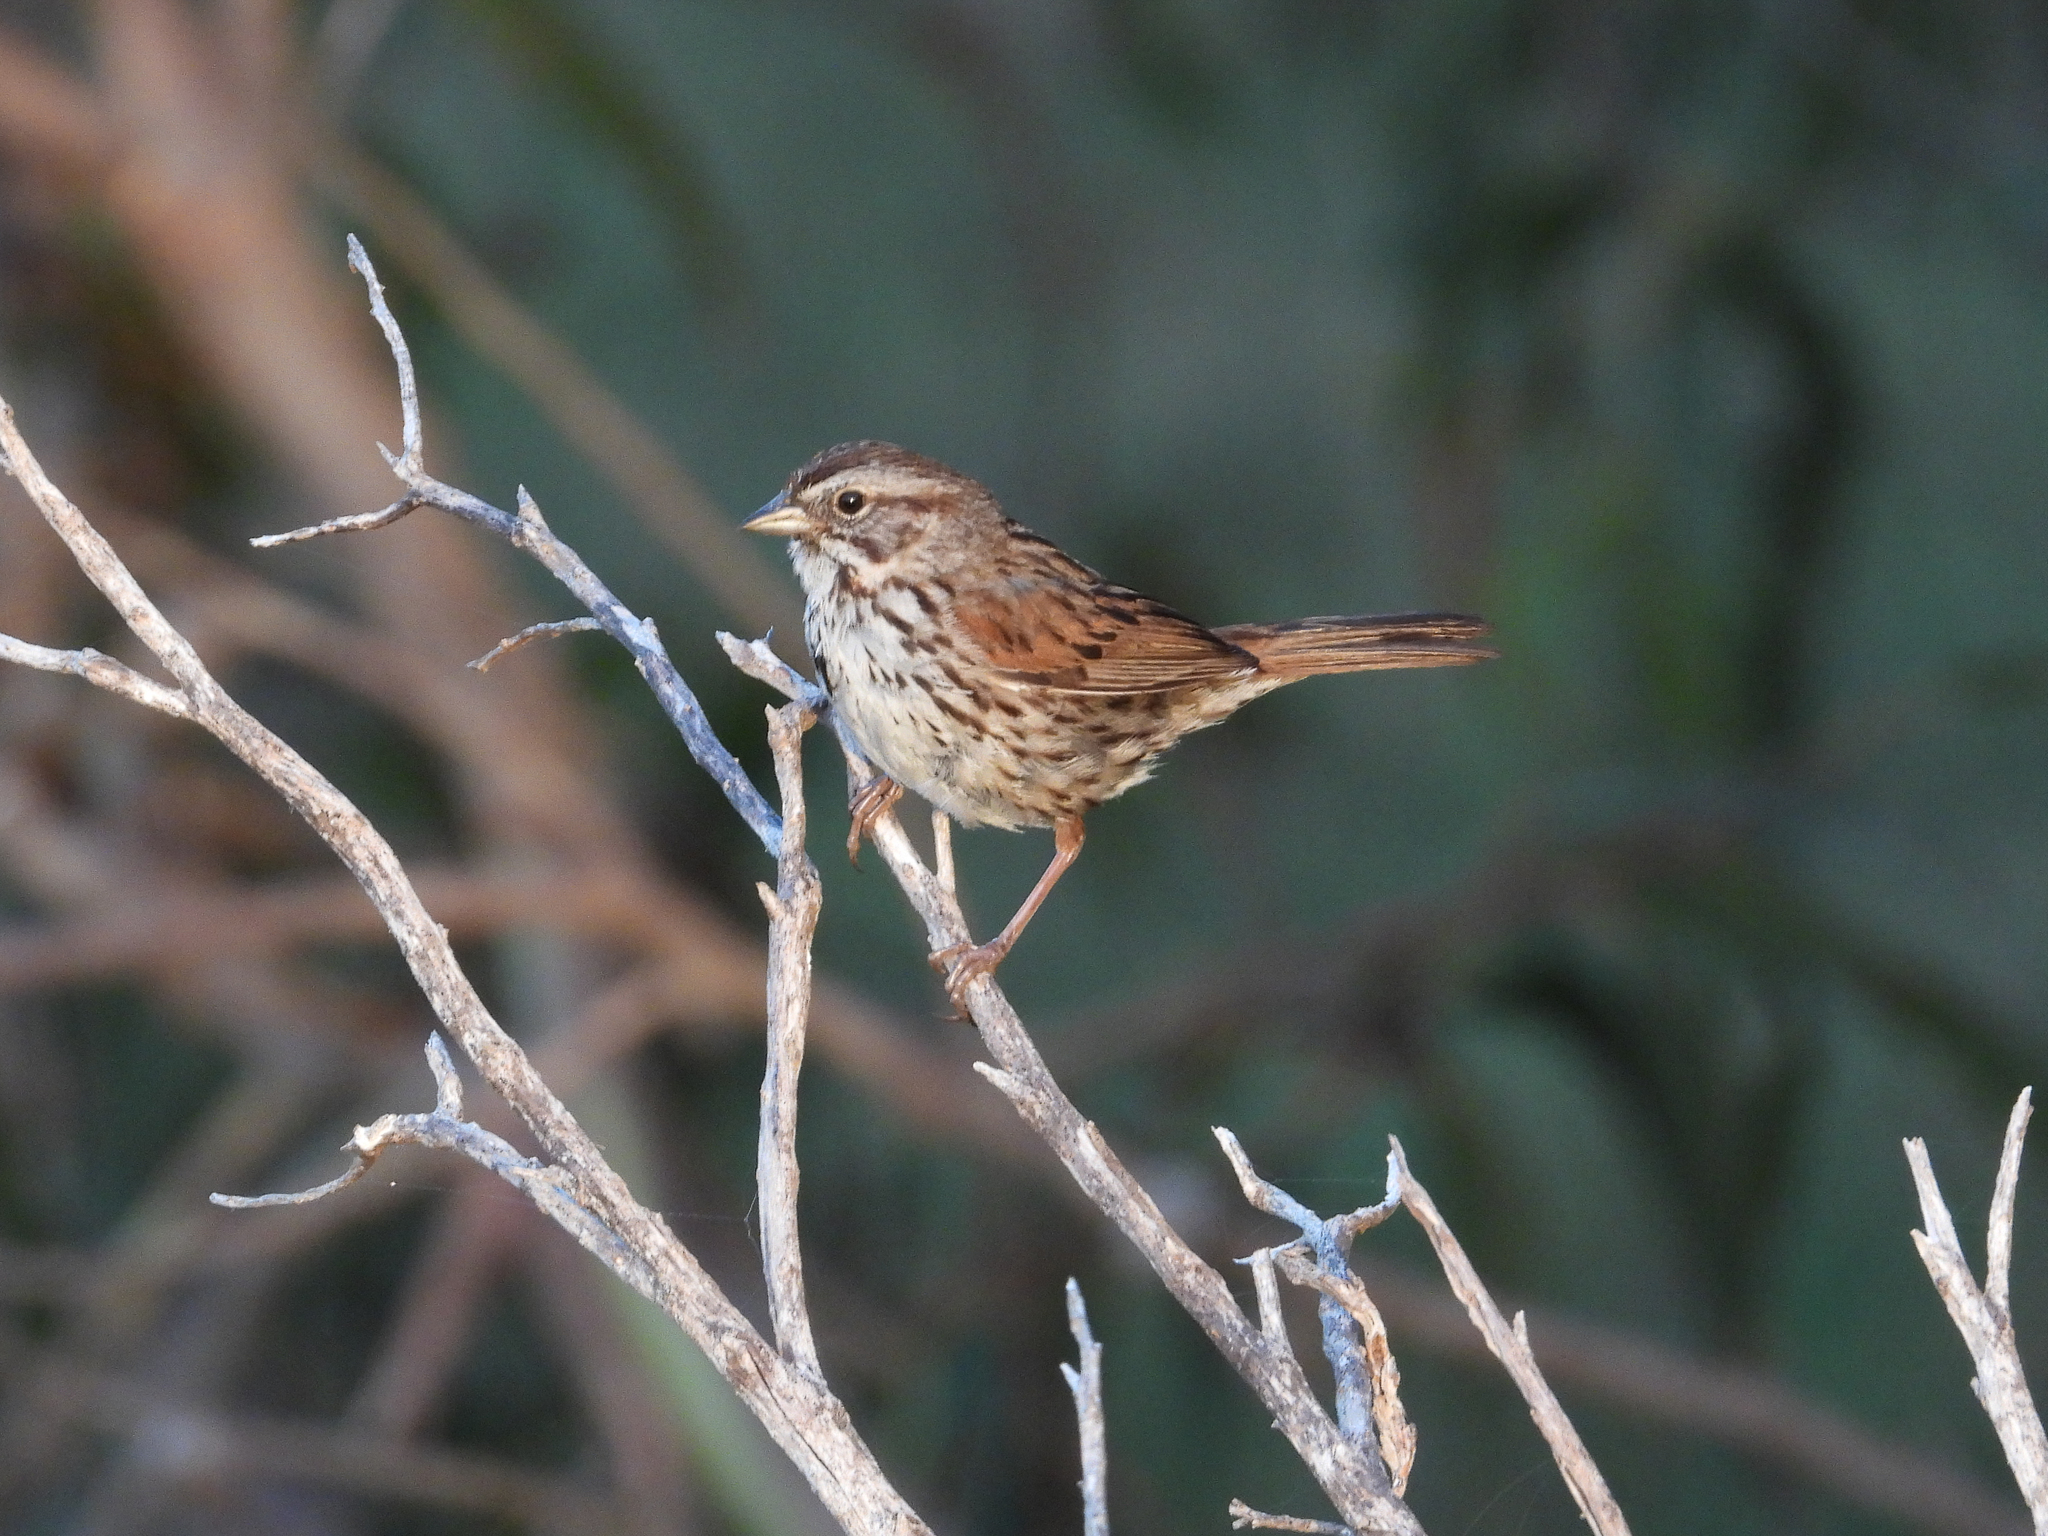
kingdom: Animalia
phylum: Chordata
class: Aves
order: Passeriformes
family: Passerellidae
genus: Melospiza
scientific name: Melospiza melodia
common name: Song sparrow
